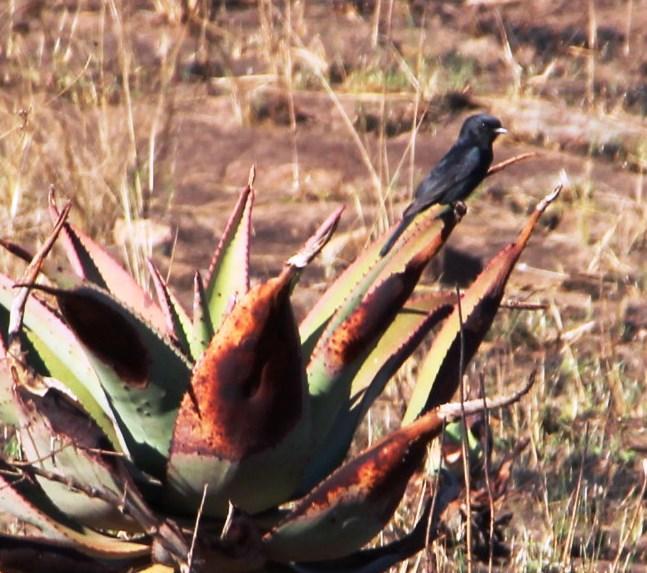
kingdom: Animalia
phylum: Chordata
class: Aves
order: Passeriformes
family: Muscicapidae
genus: Melaenornis
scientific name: Melaenornis pammelaina
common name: Southern black flycatcher
